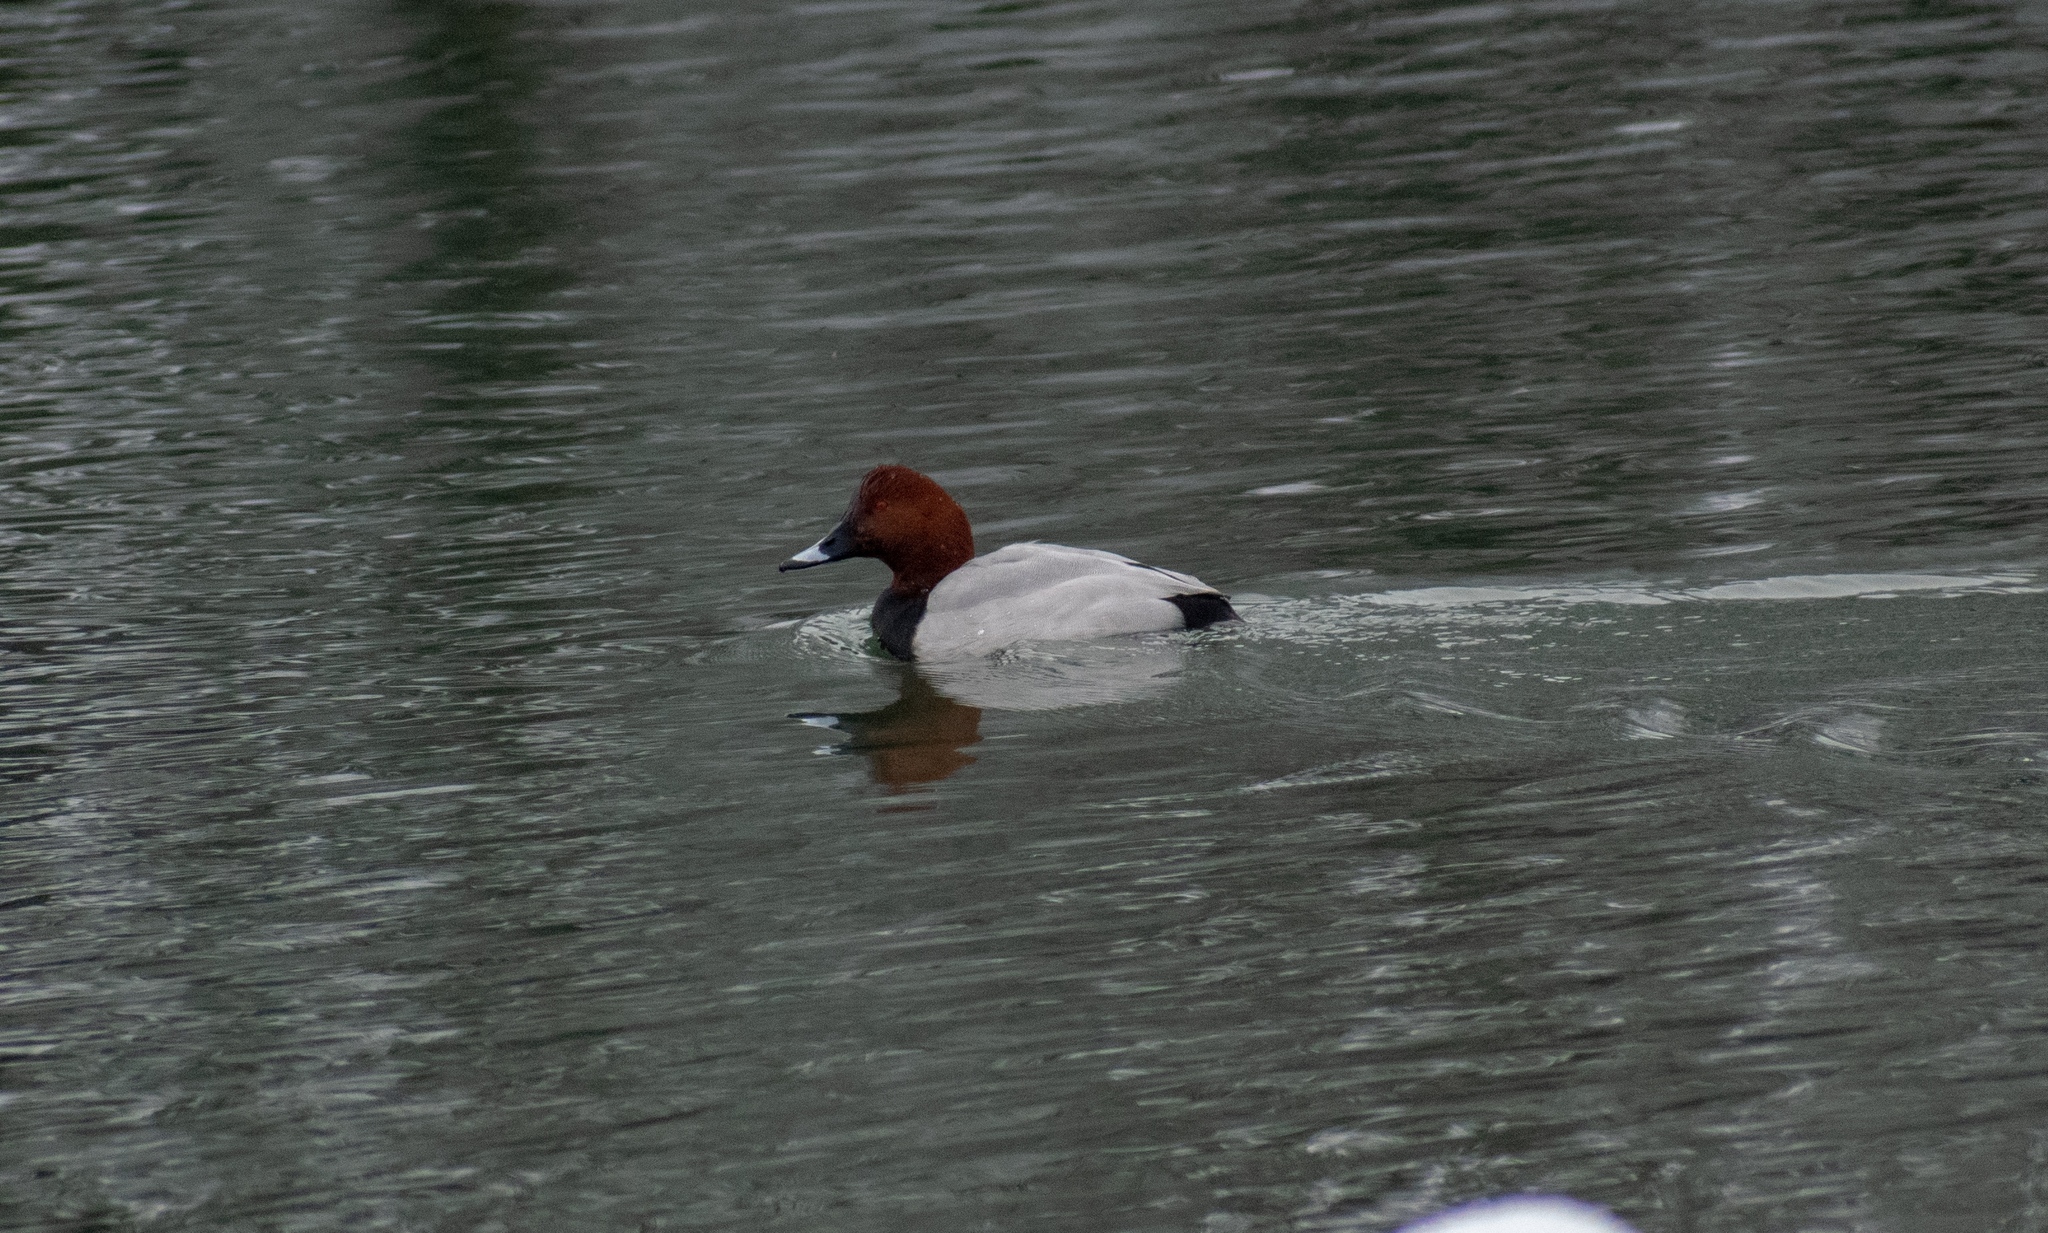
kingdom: Animalia
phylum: Chordata
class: Aves
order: Anseriformes
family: Anatidae
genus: Aythya
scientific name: Aythya ferina
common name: Common pochard
